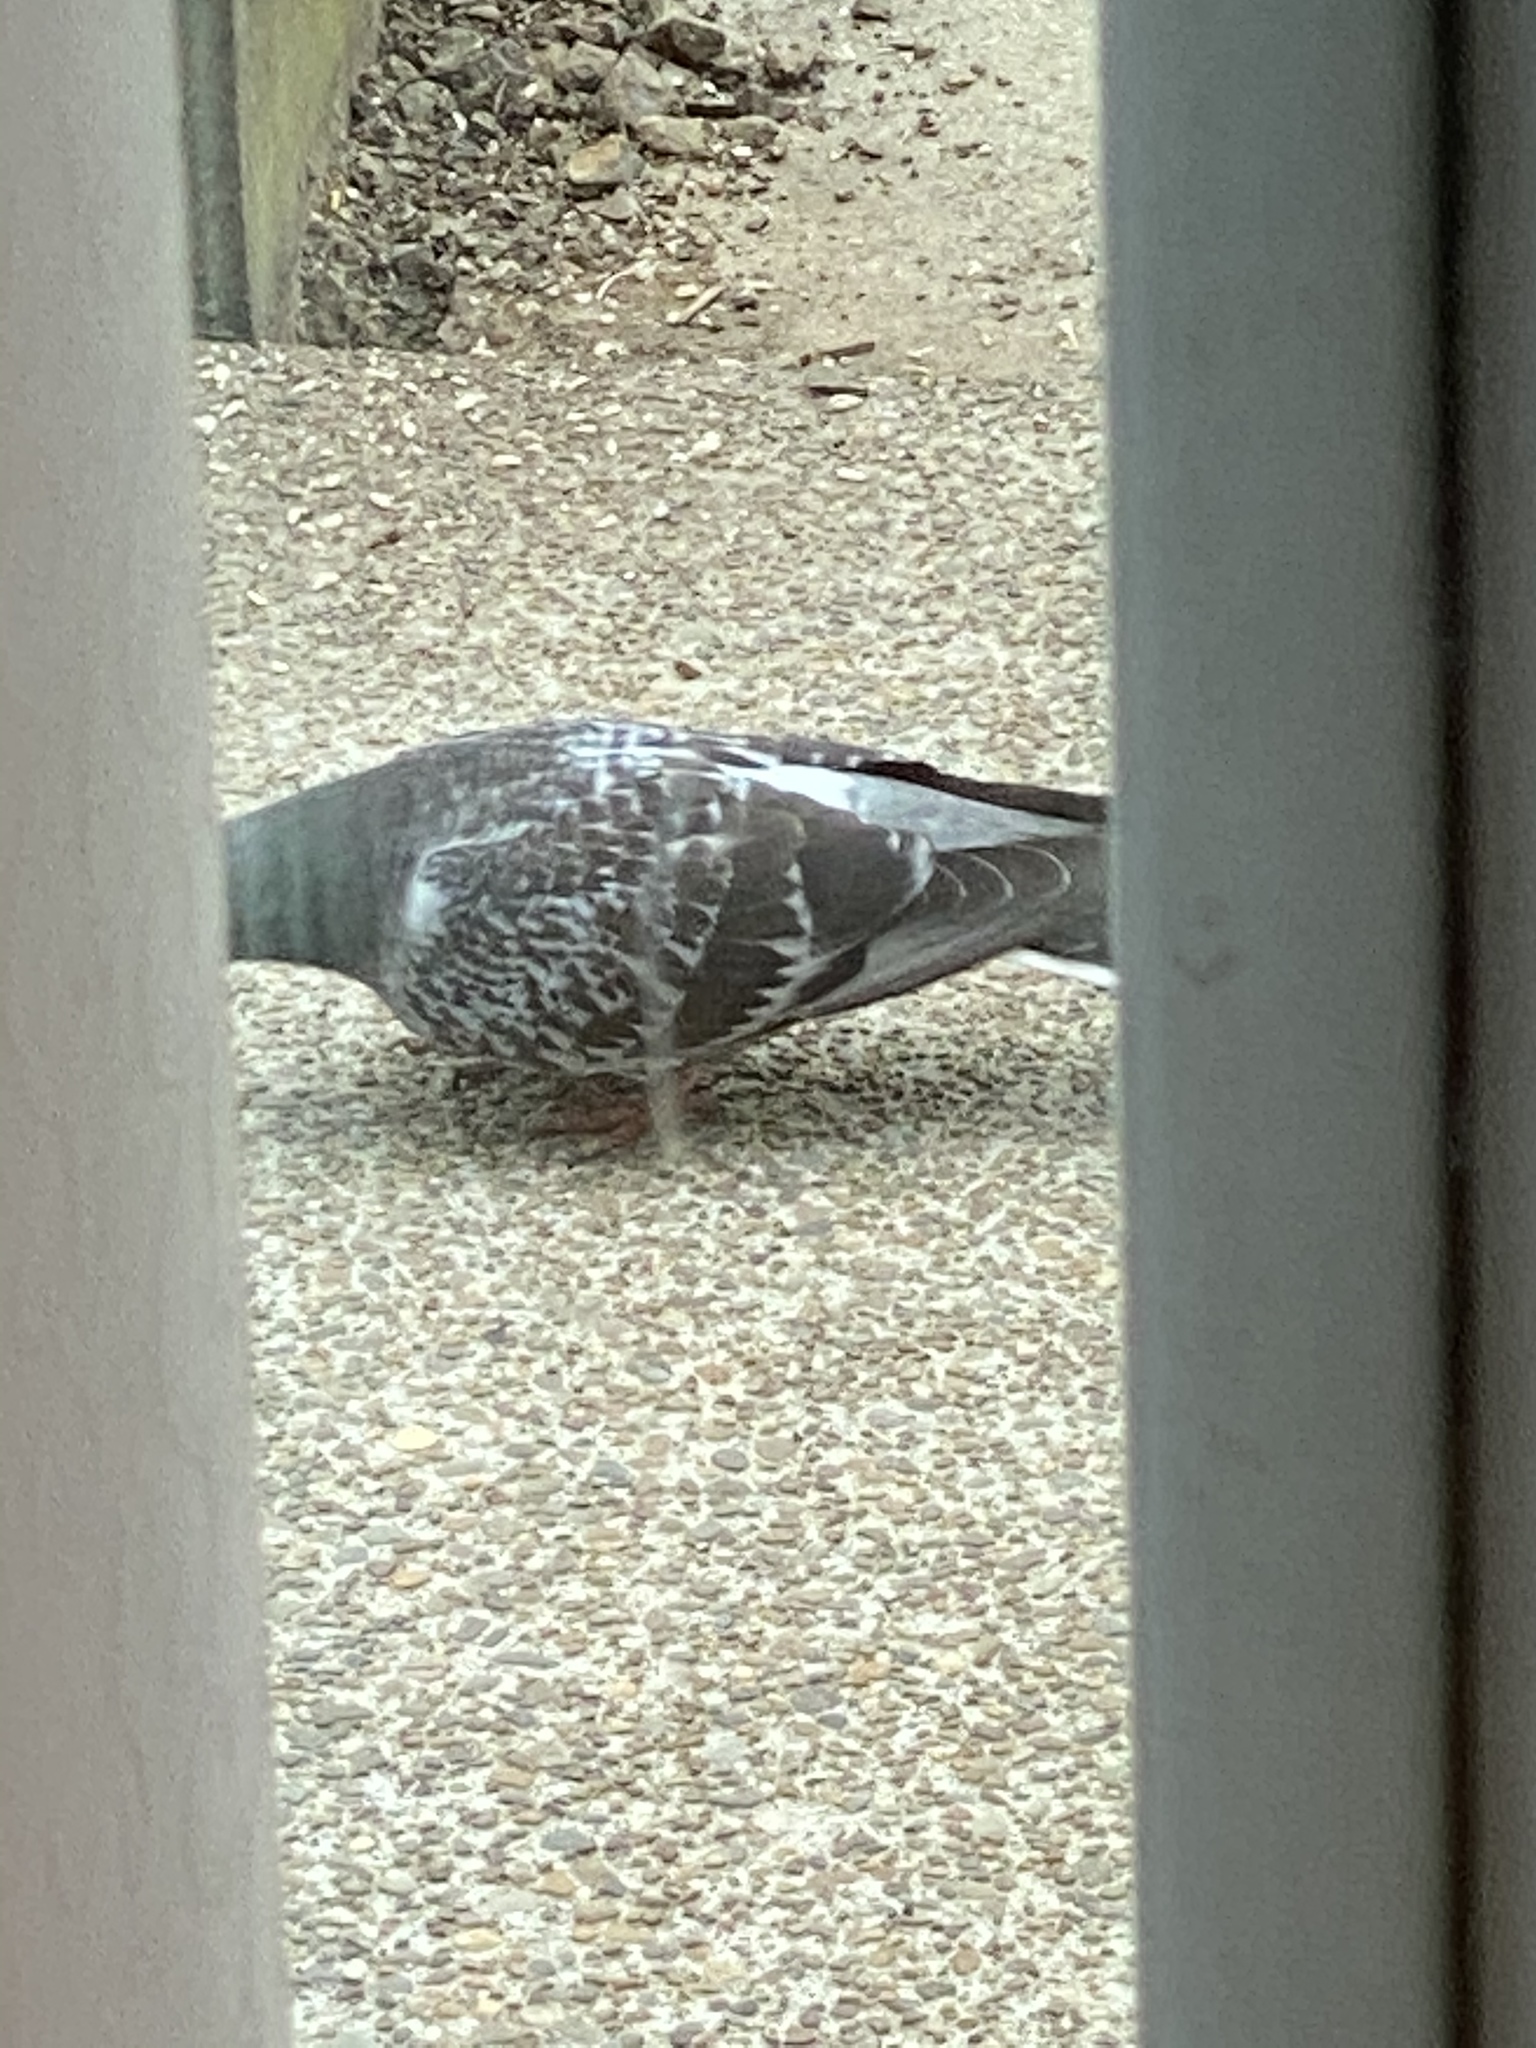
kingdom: Animalia
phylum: Chordata
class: Aves
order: Columbiformes
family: Columbidae
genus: Columba
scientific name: Columba livia
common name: Rock pigeon
